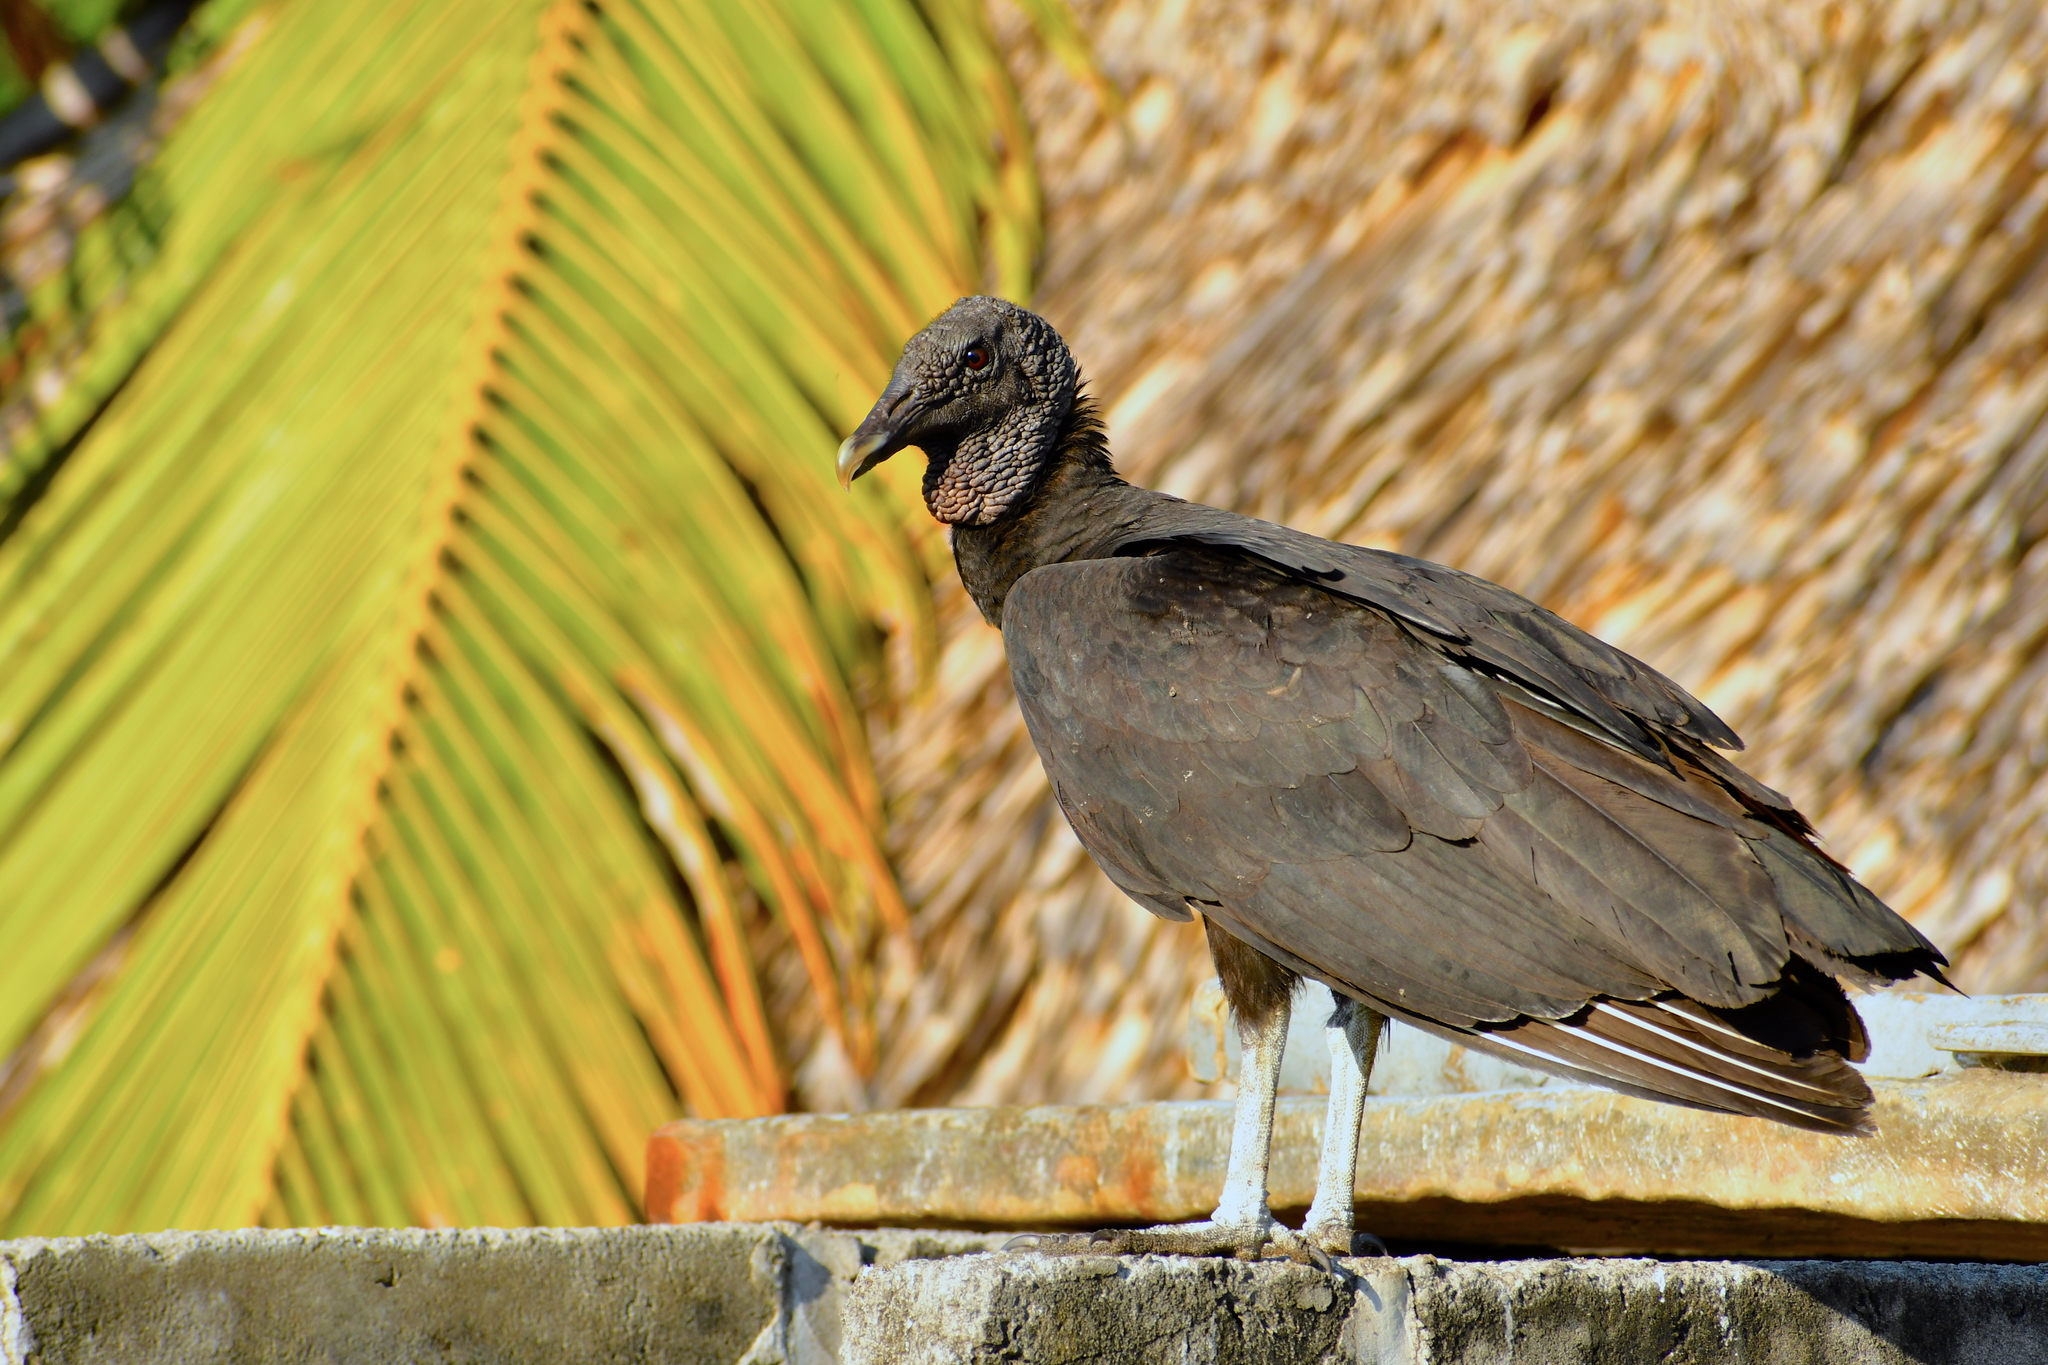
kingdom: Animalia
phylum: Chordata
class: Aves
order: Accipitriformes
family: Cathartidae
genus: Coragyps
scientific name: Coragyps atratus
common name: Black vulture
